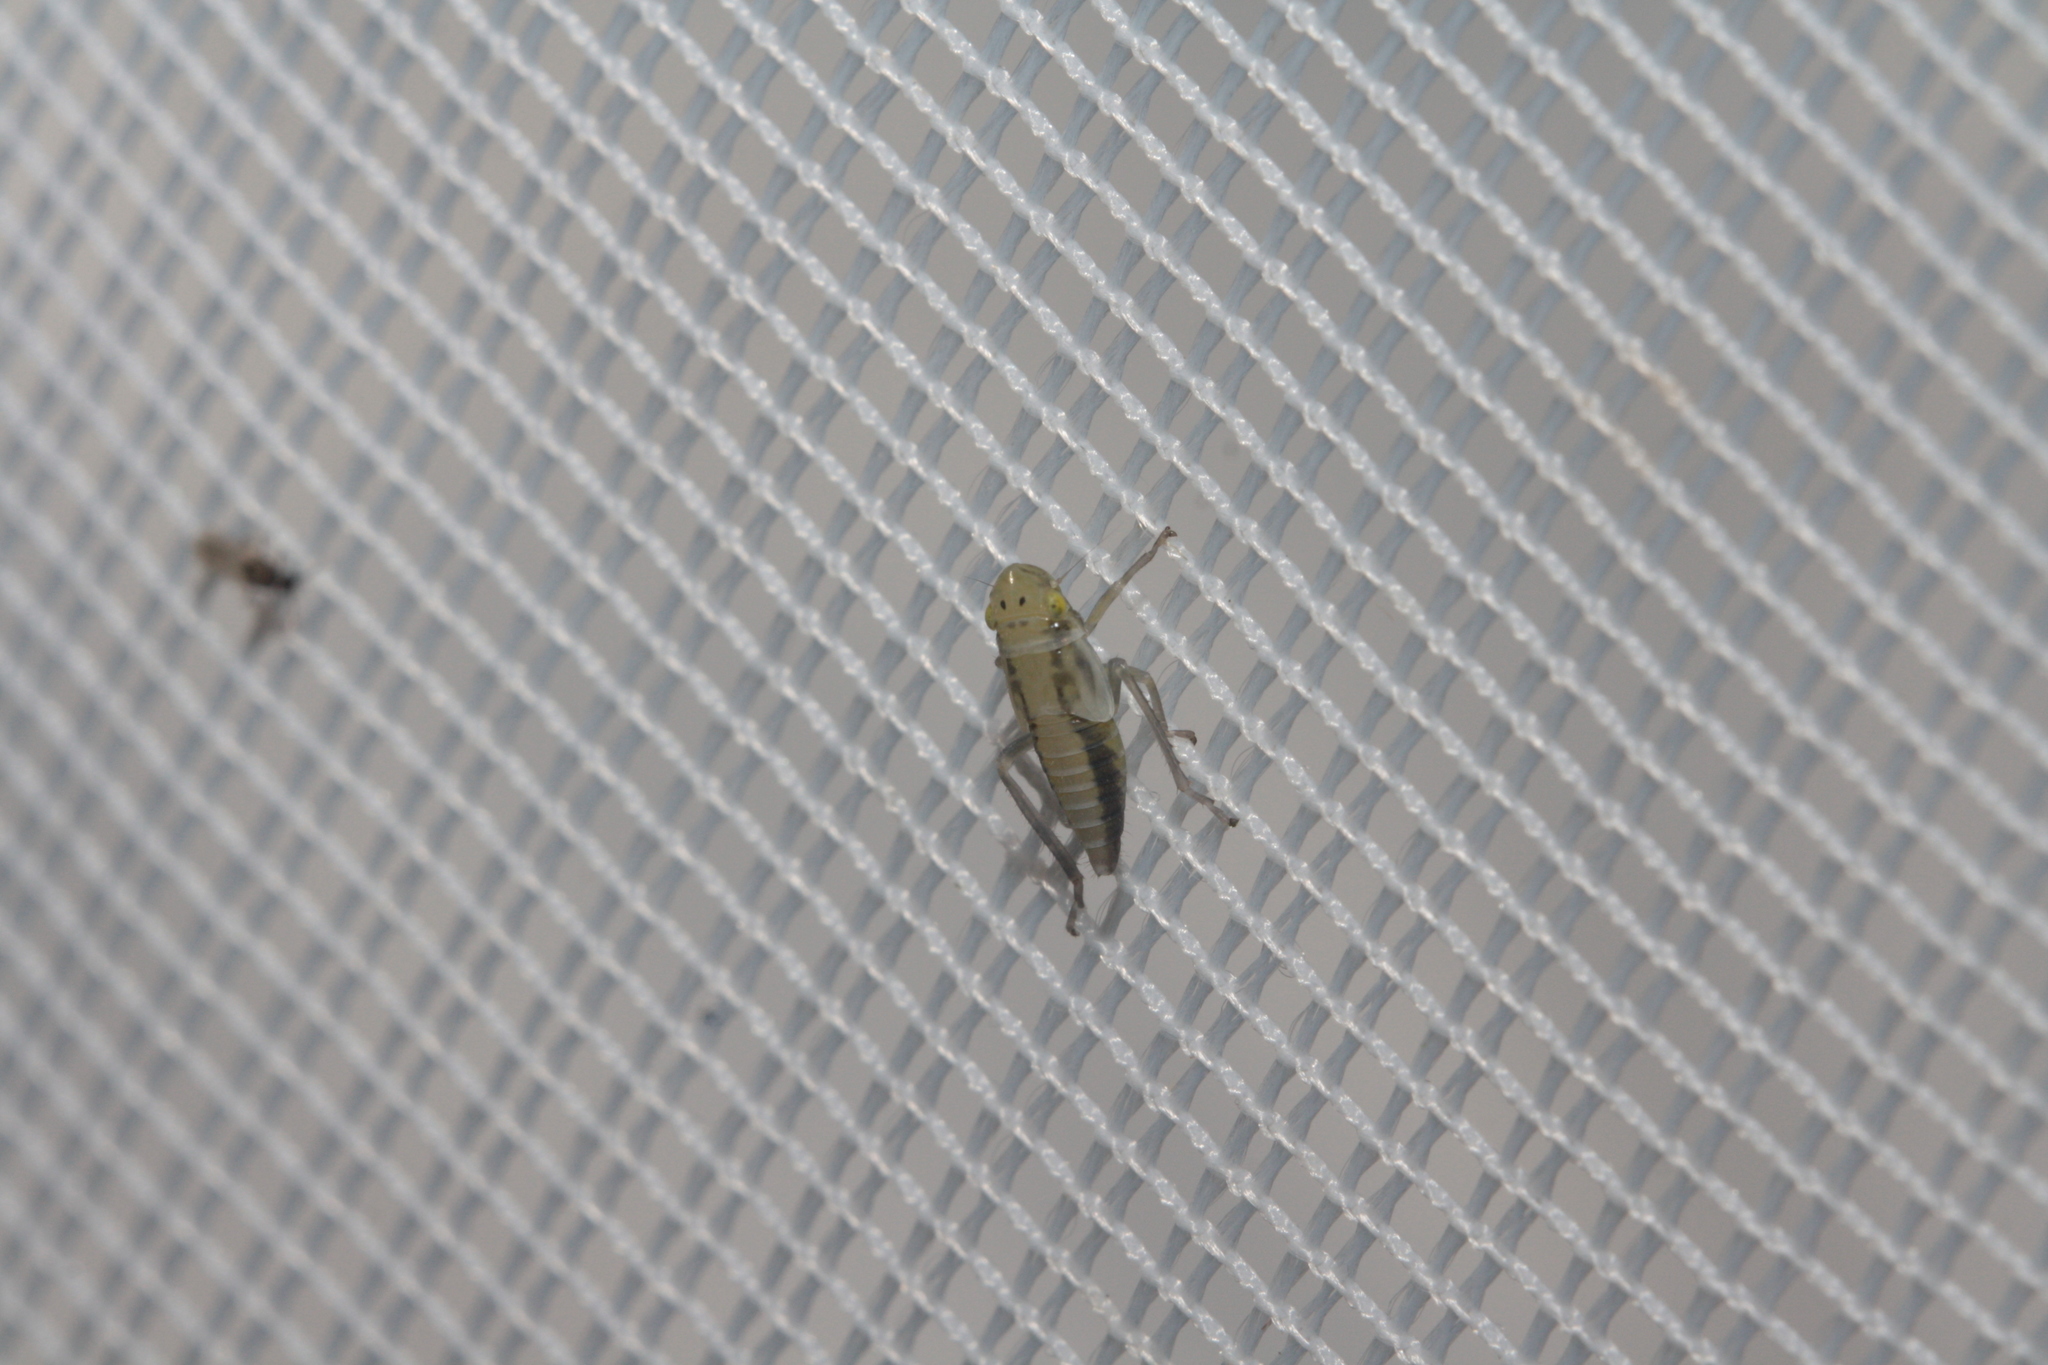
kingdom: Animalia
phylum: Arthropoda
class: Insecta
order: Hemiptera
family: Cicadellidae
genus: Evacanthus
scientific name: Evacanthus interruptus
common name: Leafhopper
